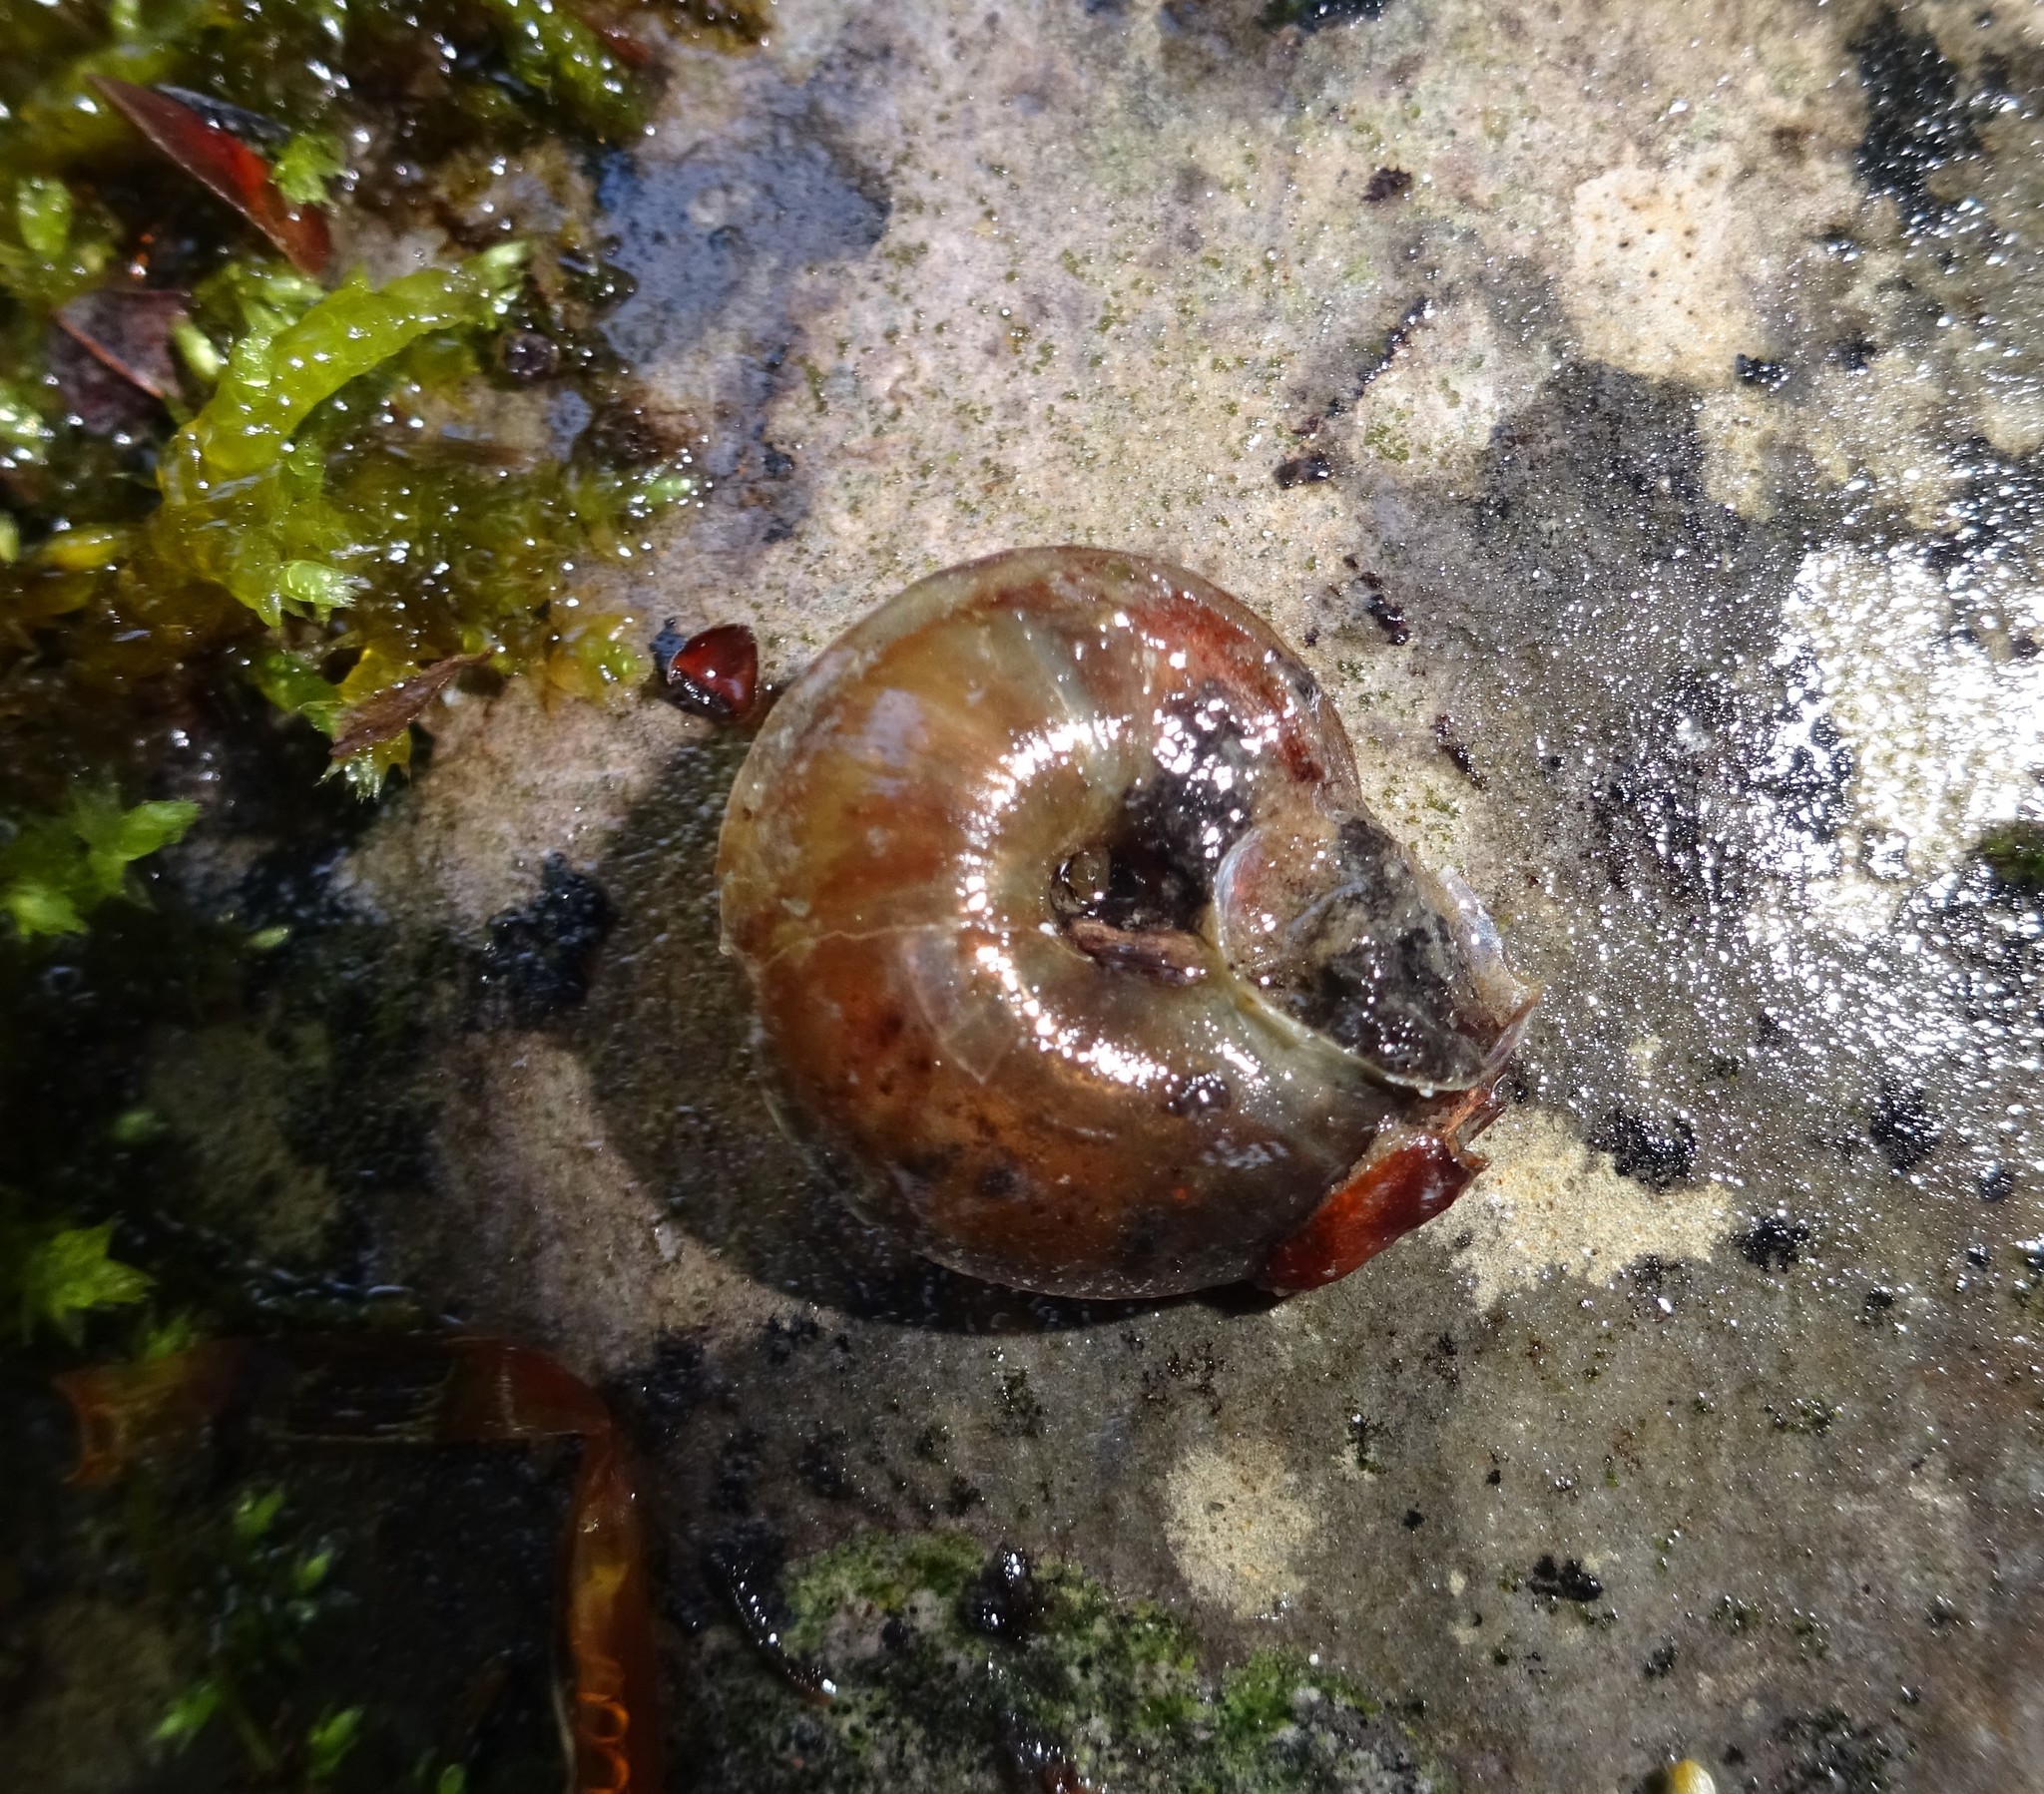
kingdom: Animalia
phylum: Mollusca
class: Gastropoda
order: Stylommatophora
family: Helicidae
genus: Helicigona
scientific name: Helicigona lapicida
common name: Lapidary snail
